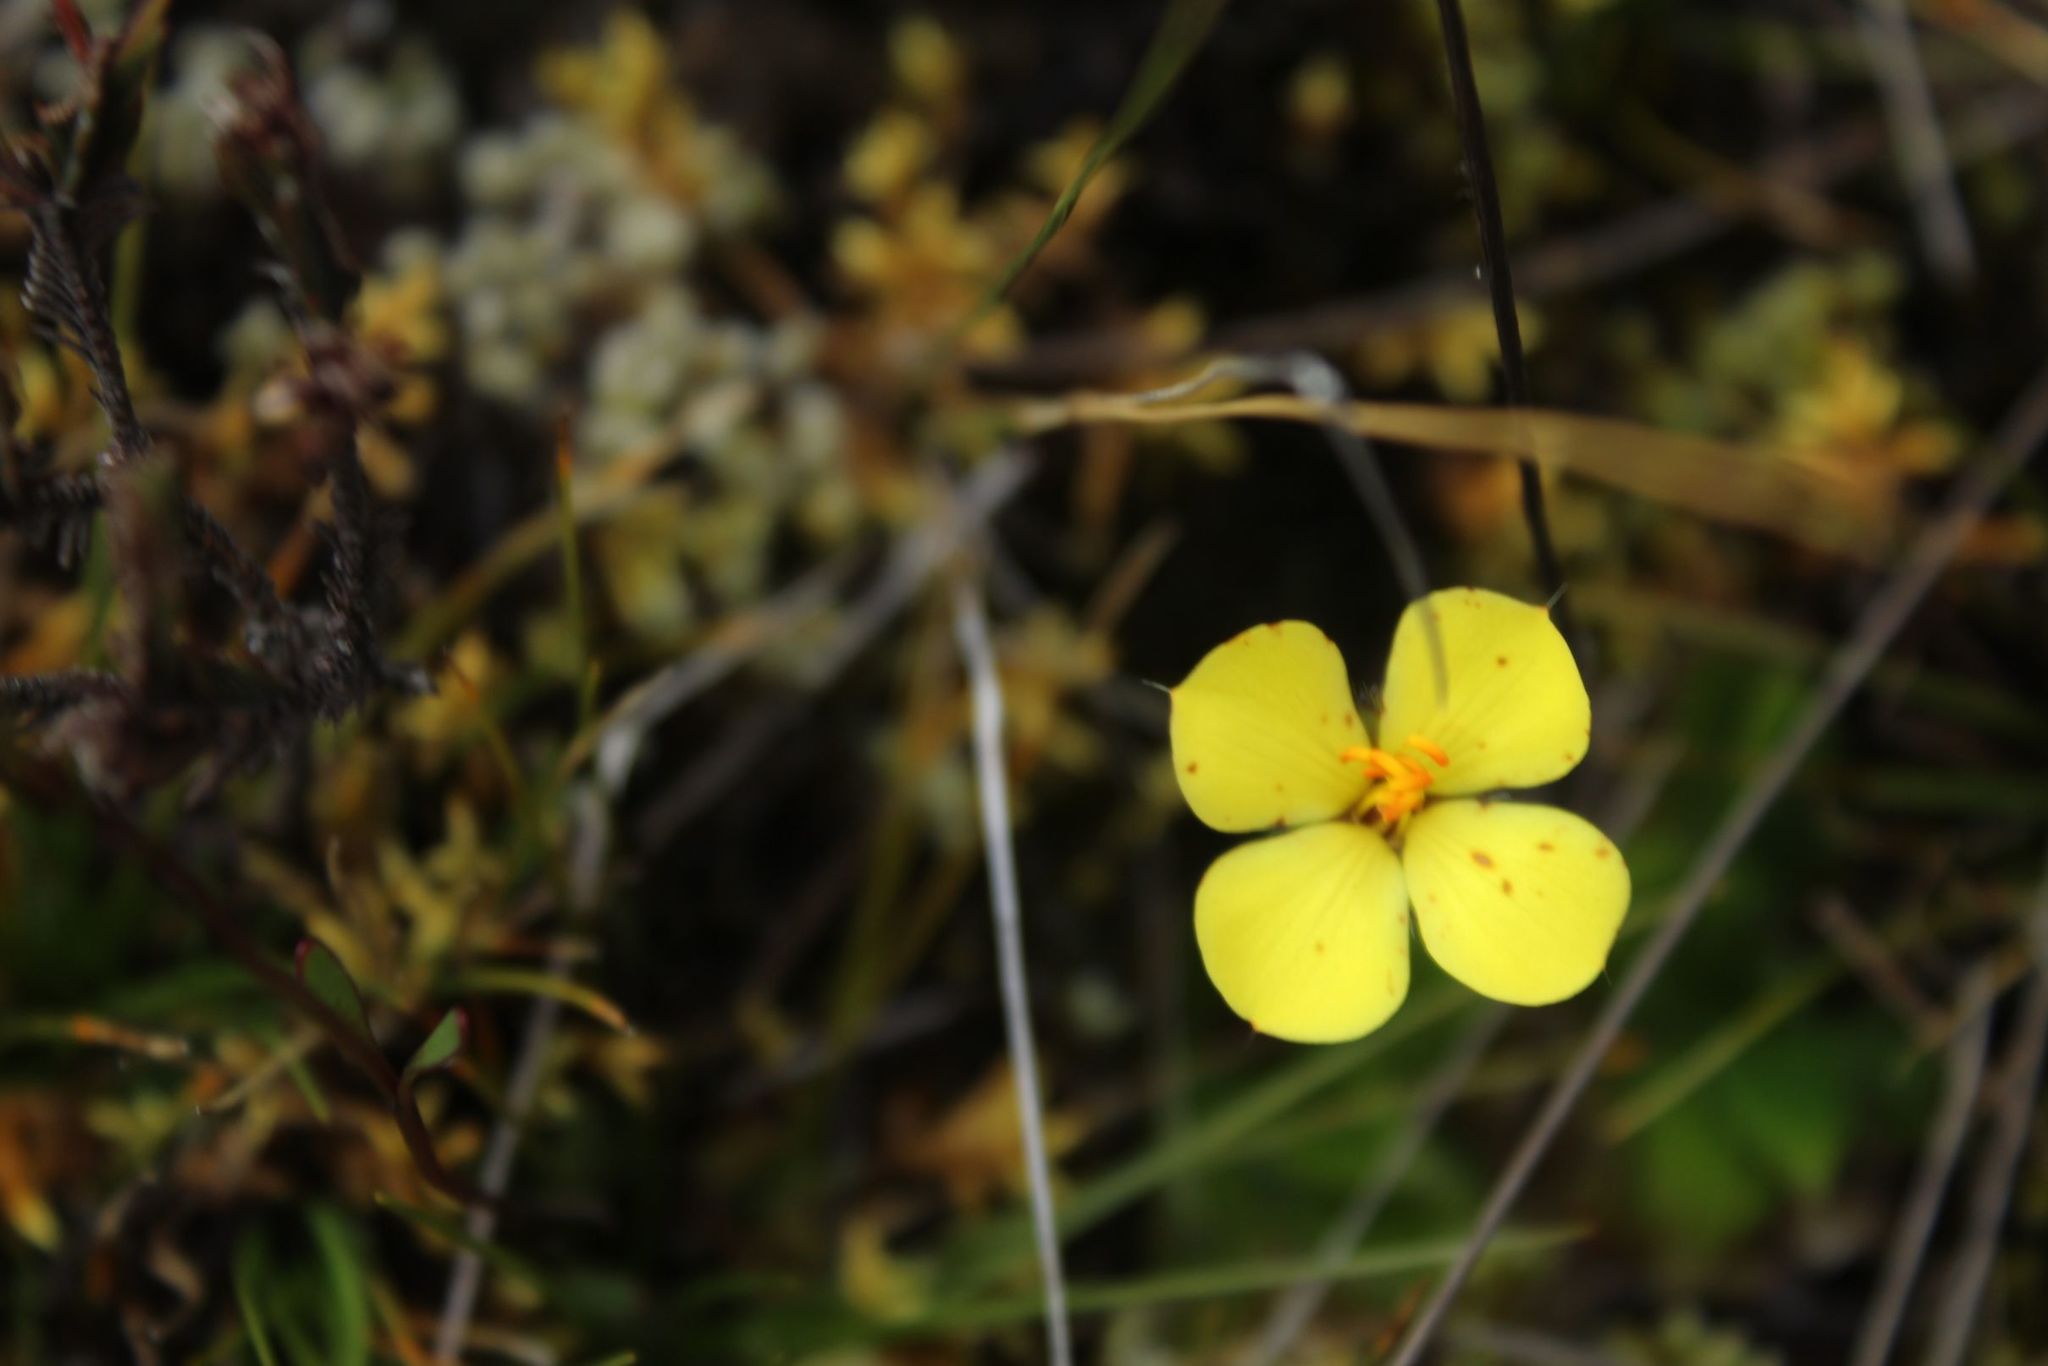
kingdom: Plantae
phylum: Tracheophyta
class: Magnoliopsida
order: Myrtales
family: Melastomataceae
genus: Castratella
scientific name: Castratella piloselloides
